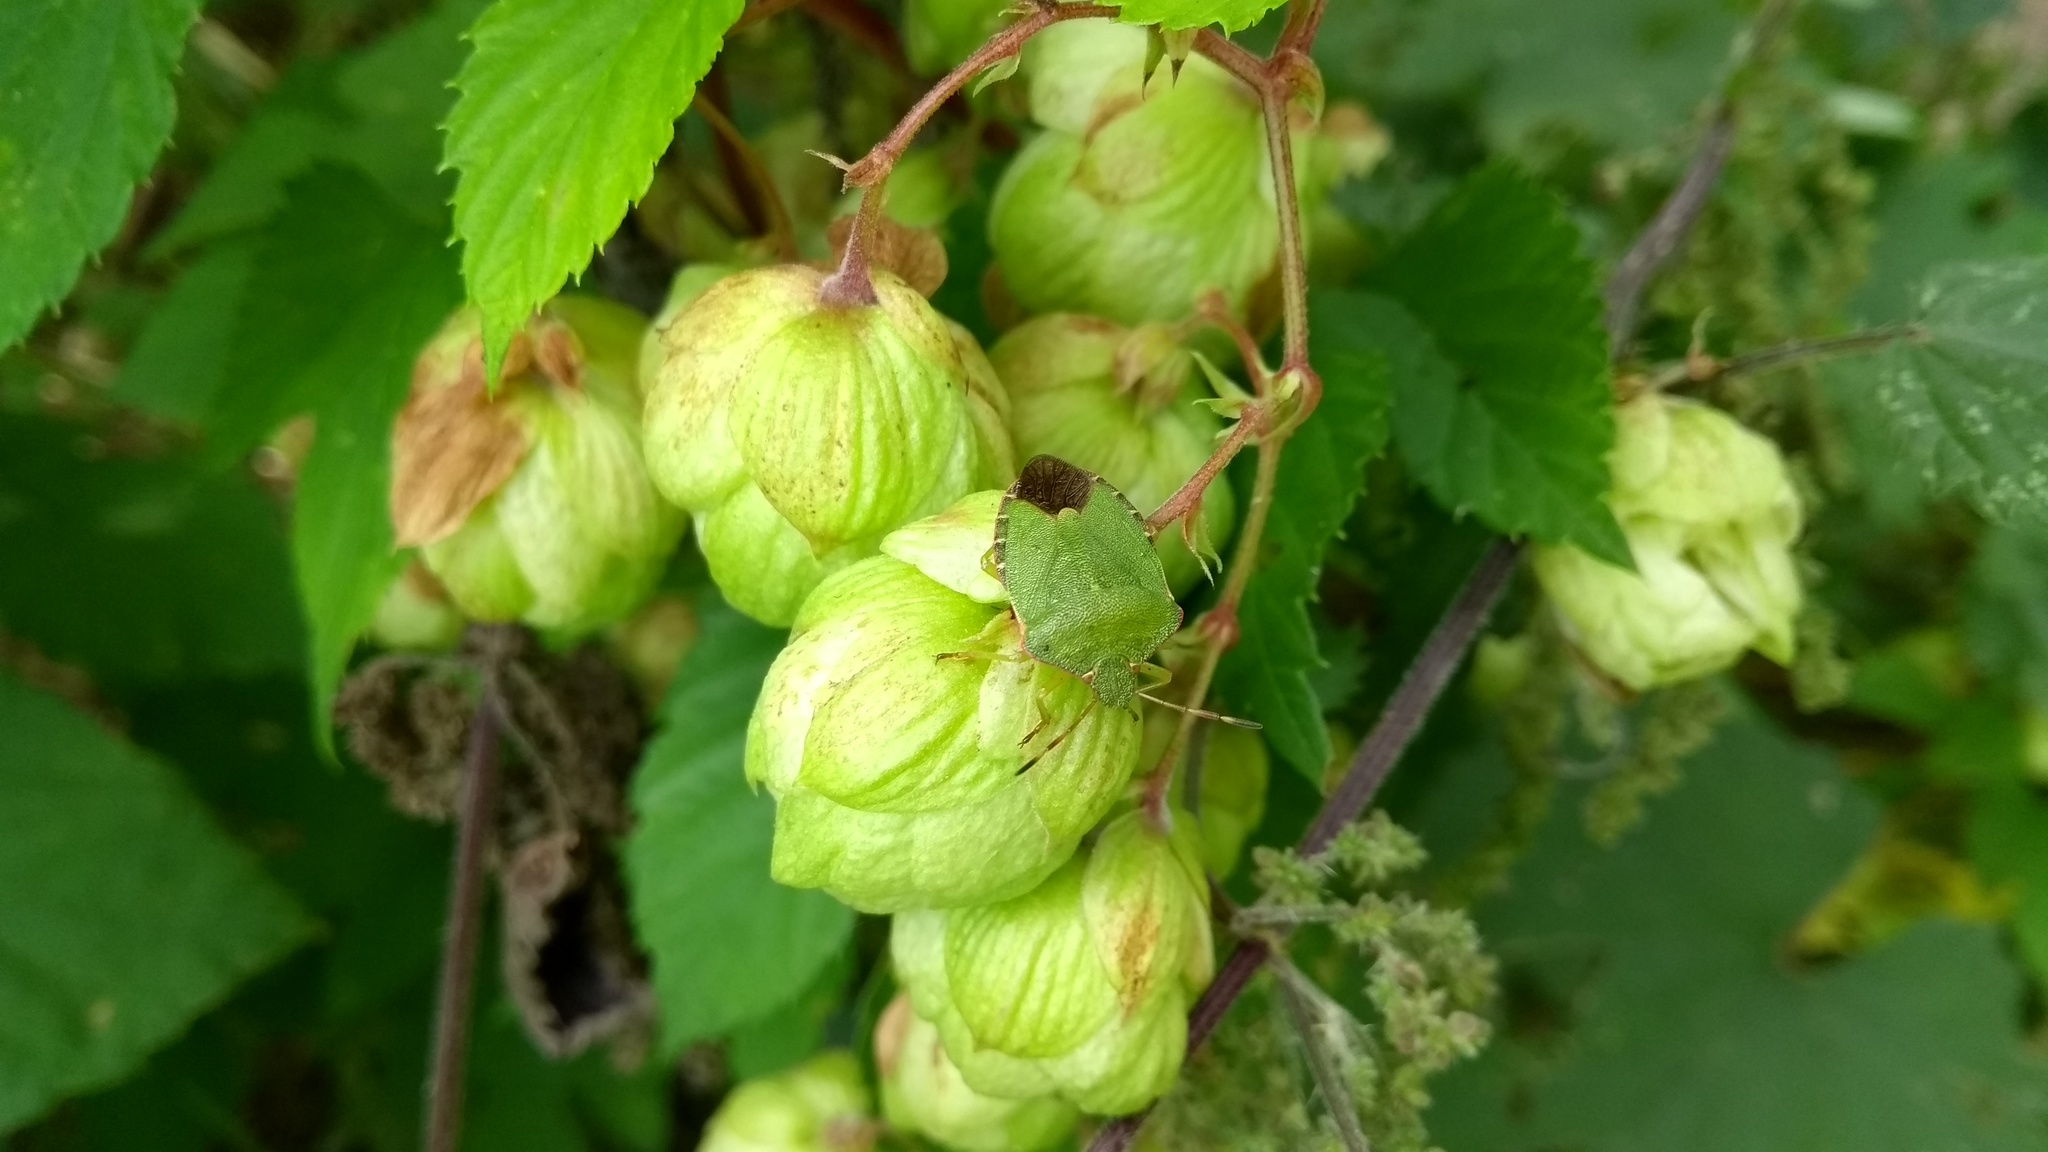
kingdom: Animalia
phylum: Arthropoda
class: Insecta
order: Hemiptera
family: Pentatomidae
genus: Palomena
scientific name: Palomena prasina
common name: Green shieldbug
